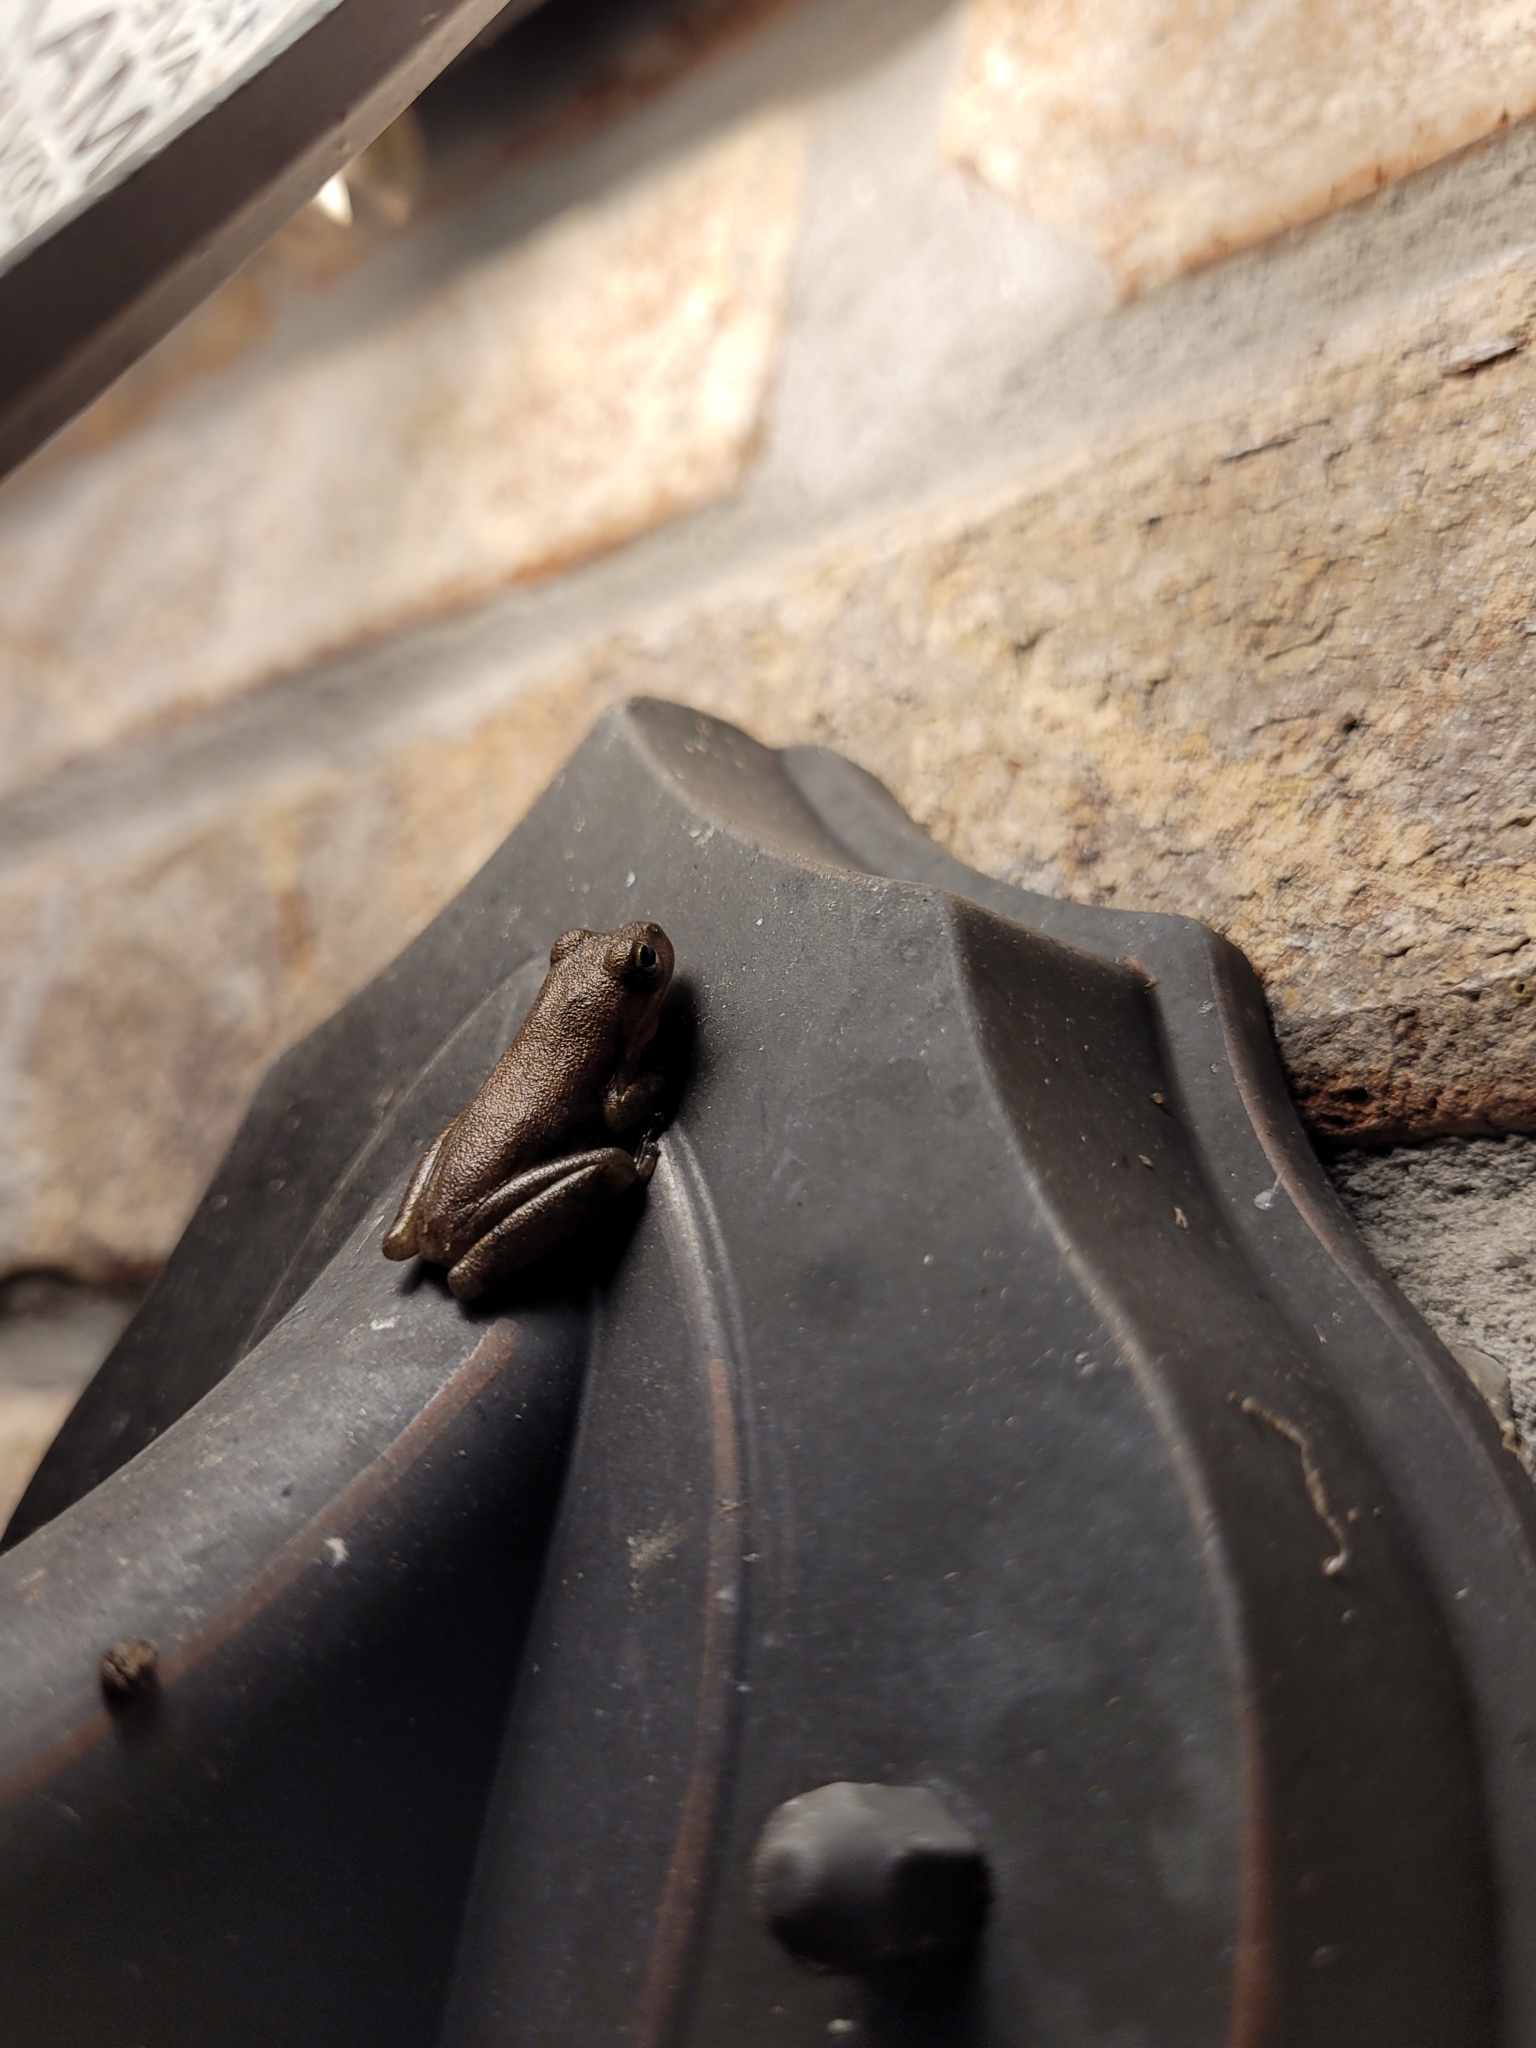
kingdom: Animalia
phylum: Chordata
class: Amphibia
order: Anura
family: Hylidae
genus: Dryophytes
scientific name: Dryophytes squirellus
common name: Squirrel treefrog
